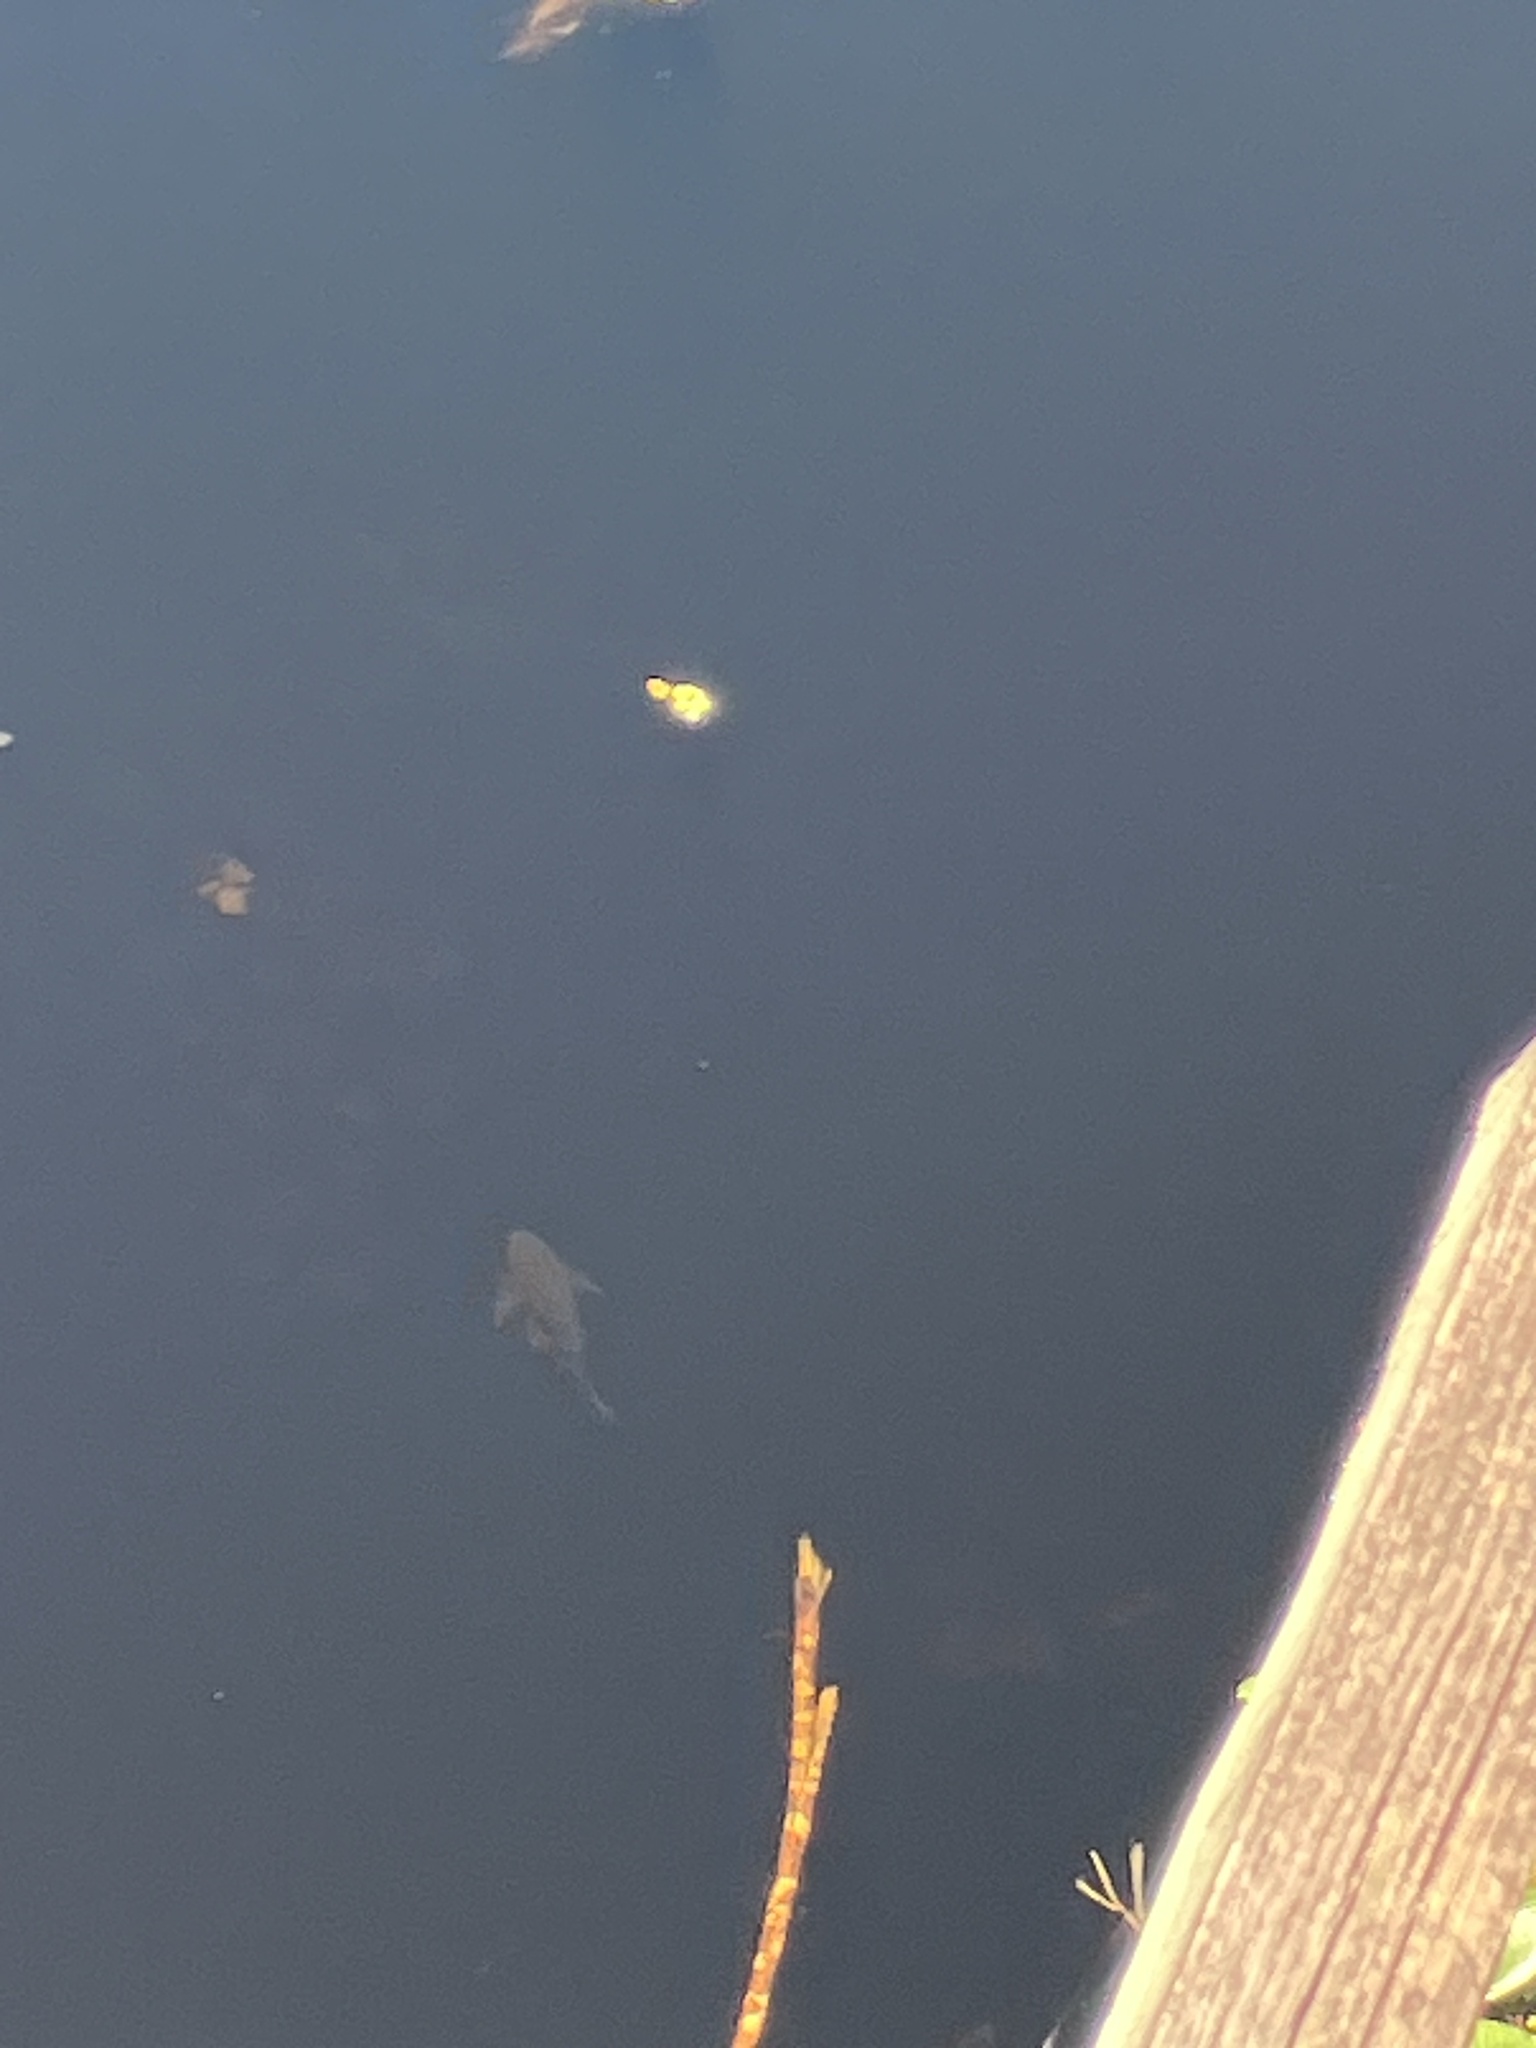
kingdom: Animalia
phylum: Chordata
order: Siluriformes
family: Loricariidae
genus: Pterygoplichthys
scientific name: Pterygoplichthys
